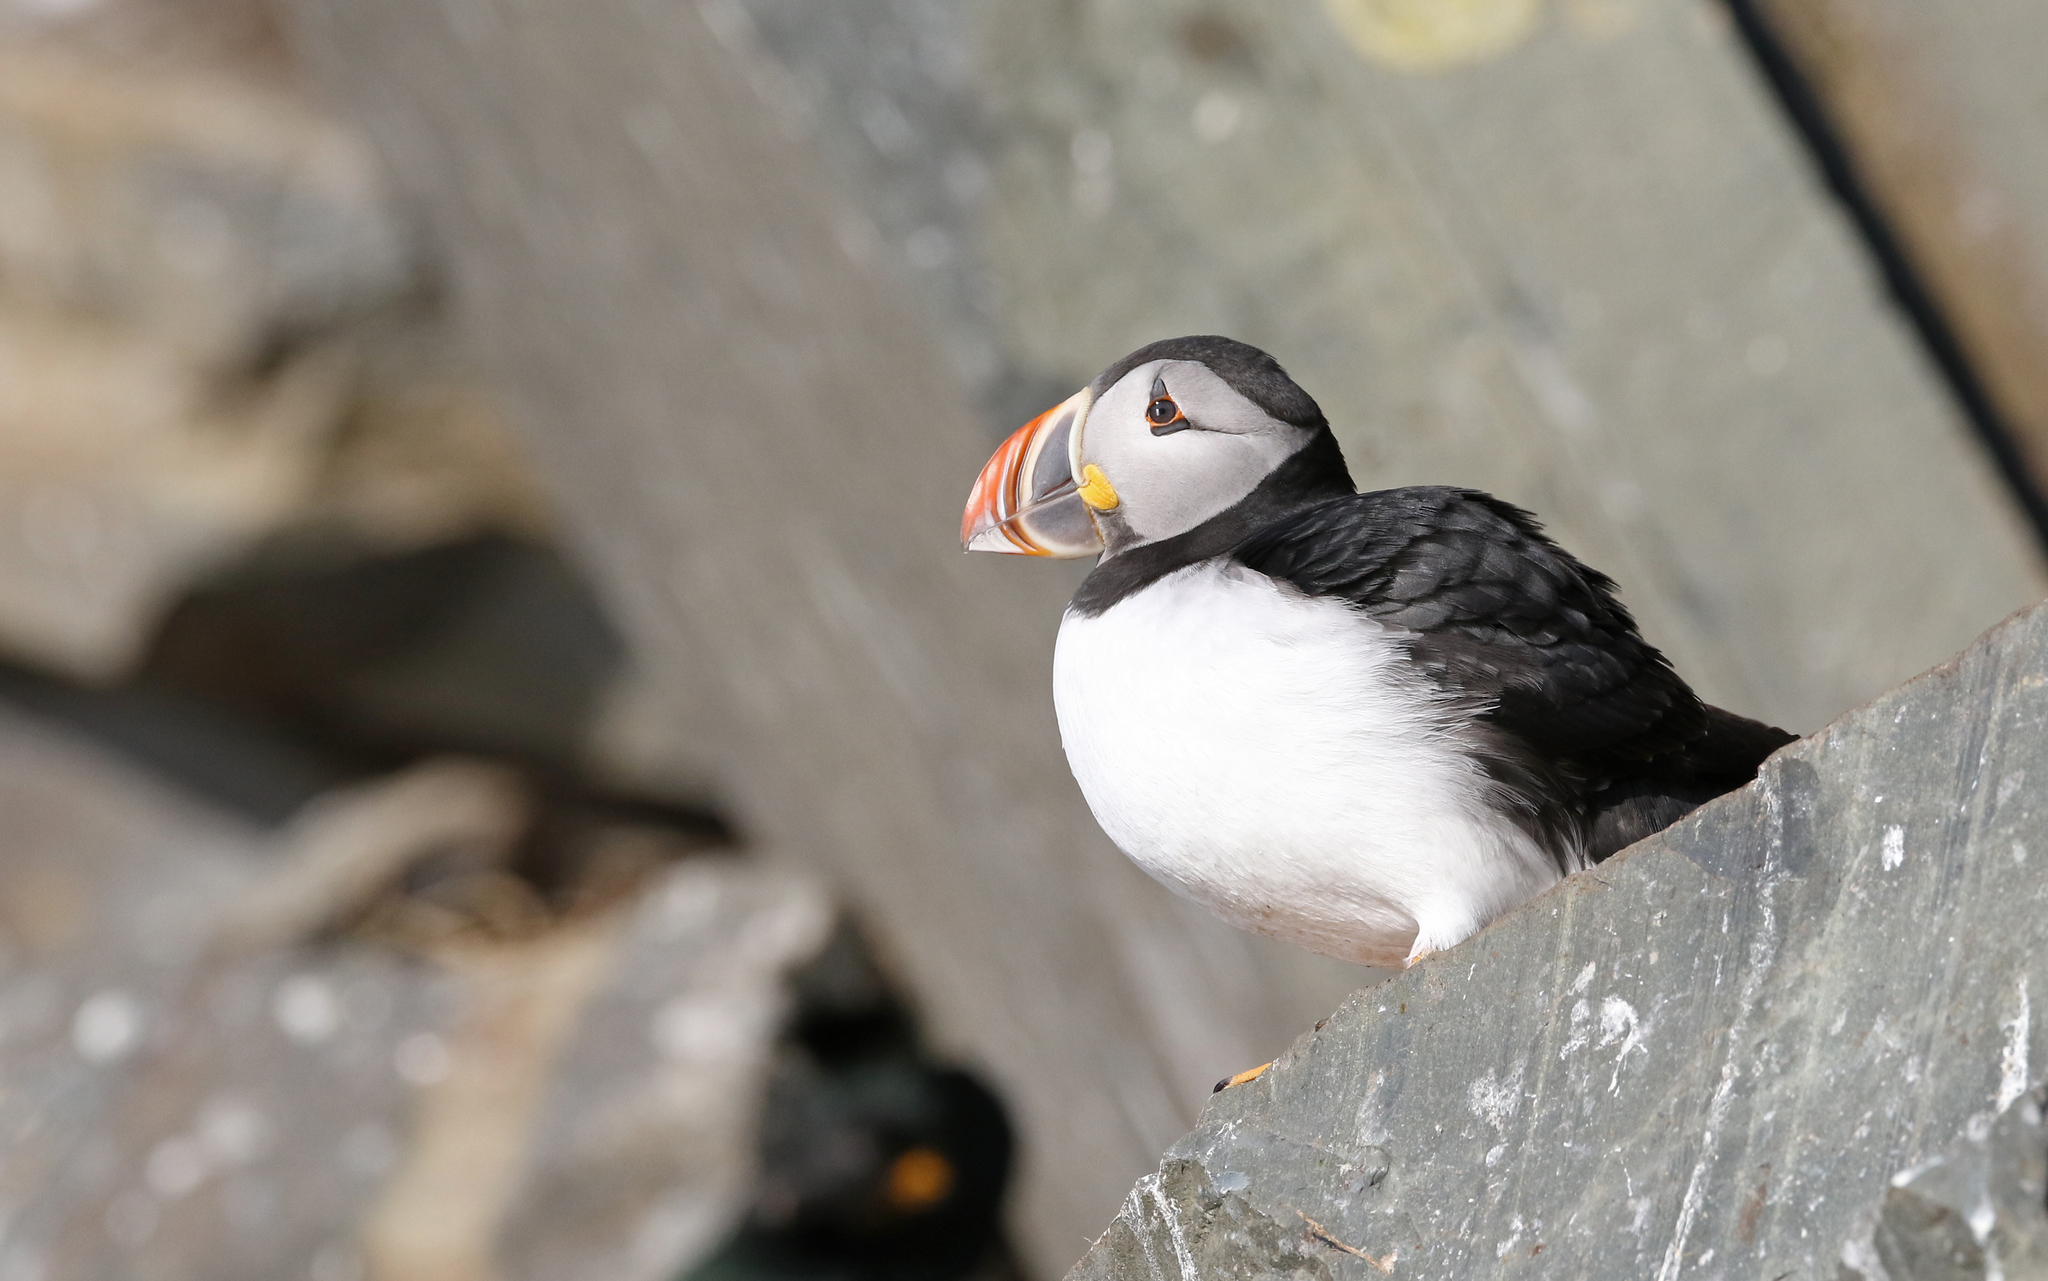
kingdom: Animalia
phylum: Chordata
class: Aves
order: Charadriiformes
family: Alcidae
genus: Fratercula
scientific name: Fratercula arctica
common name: Atlantic puffin
